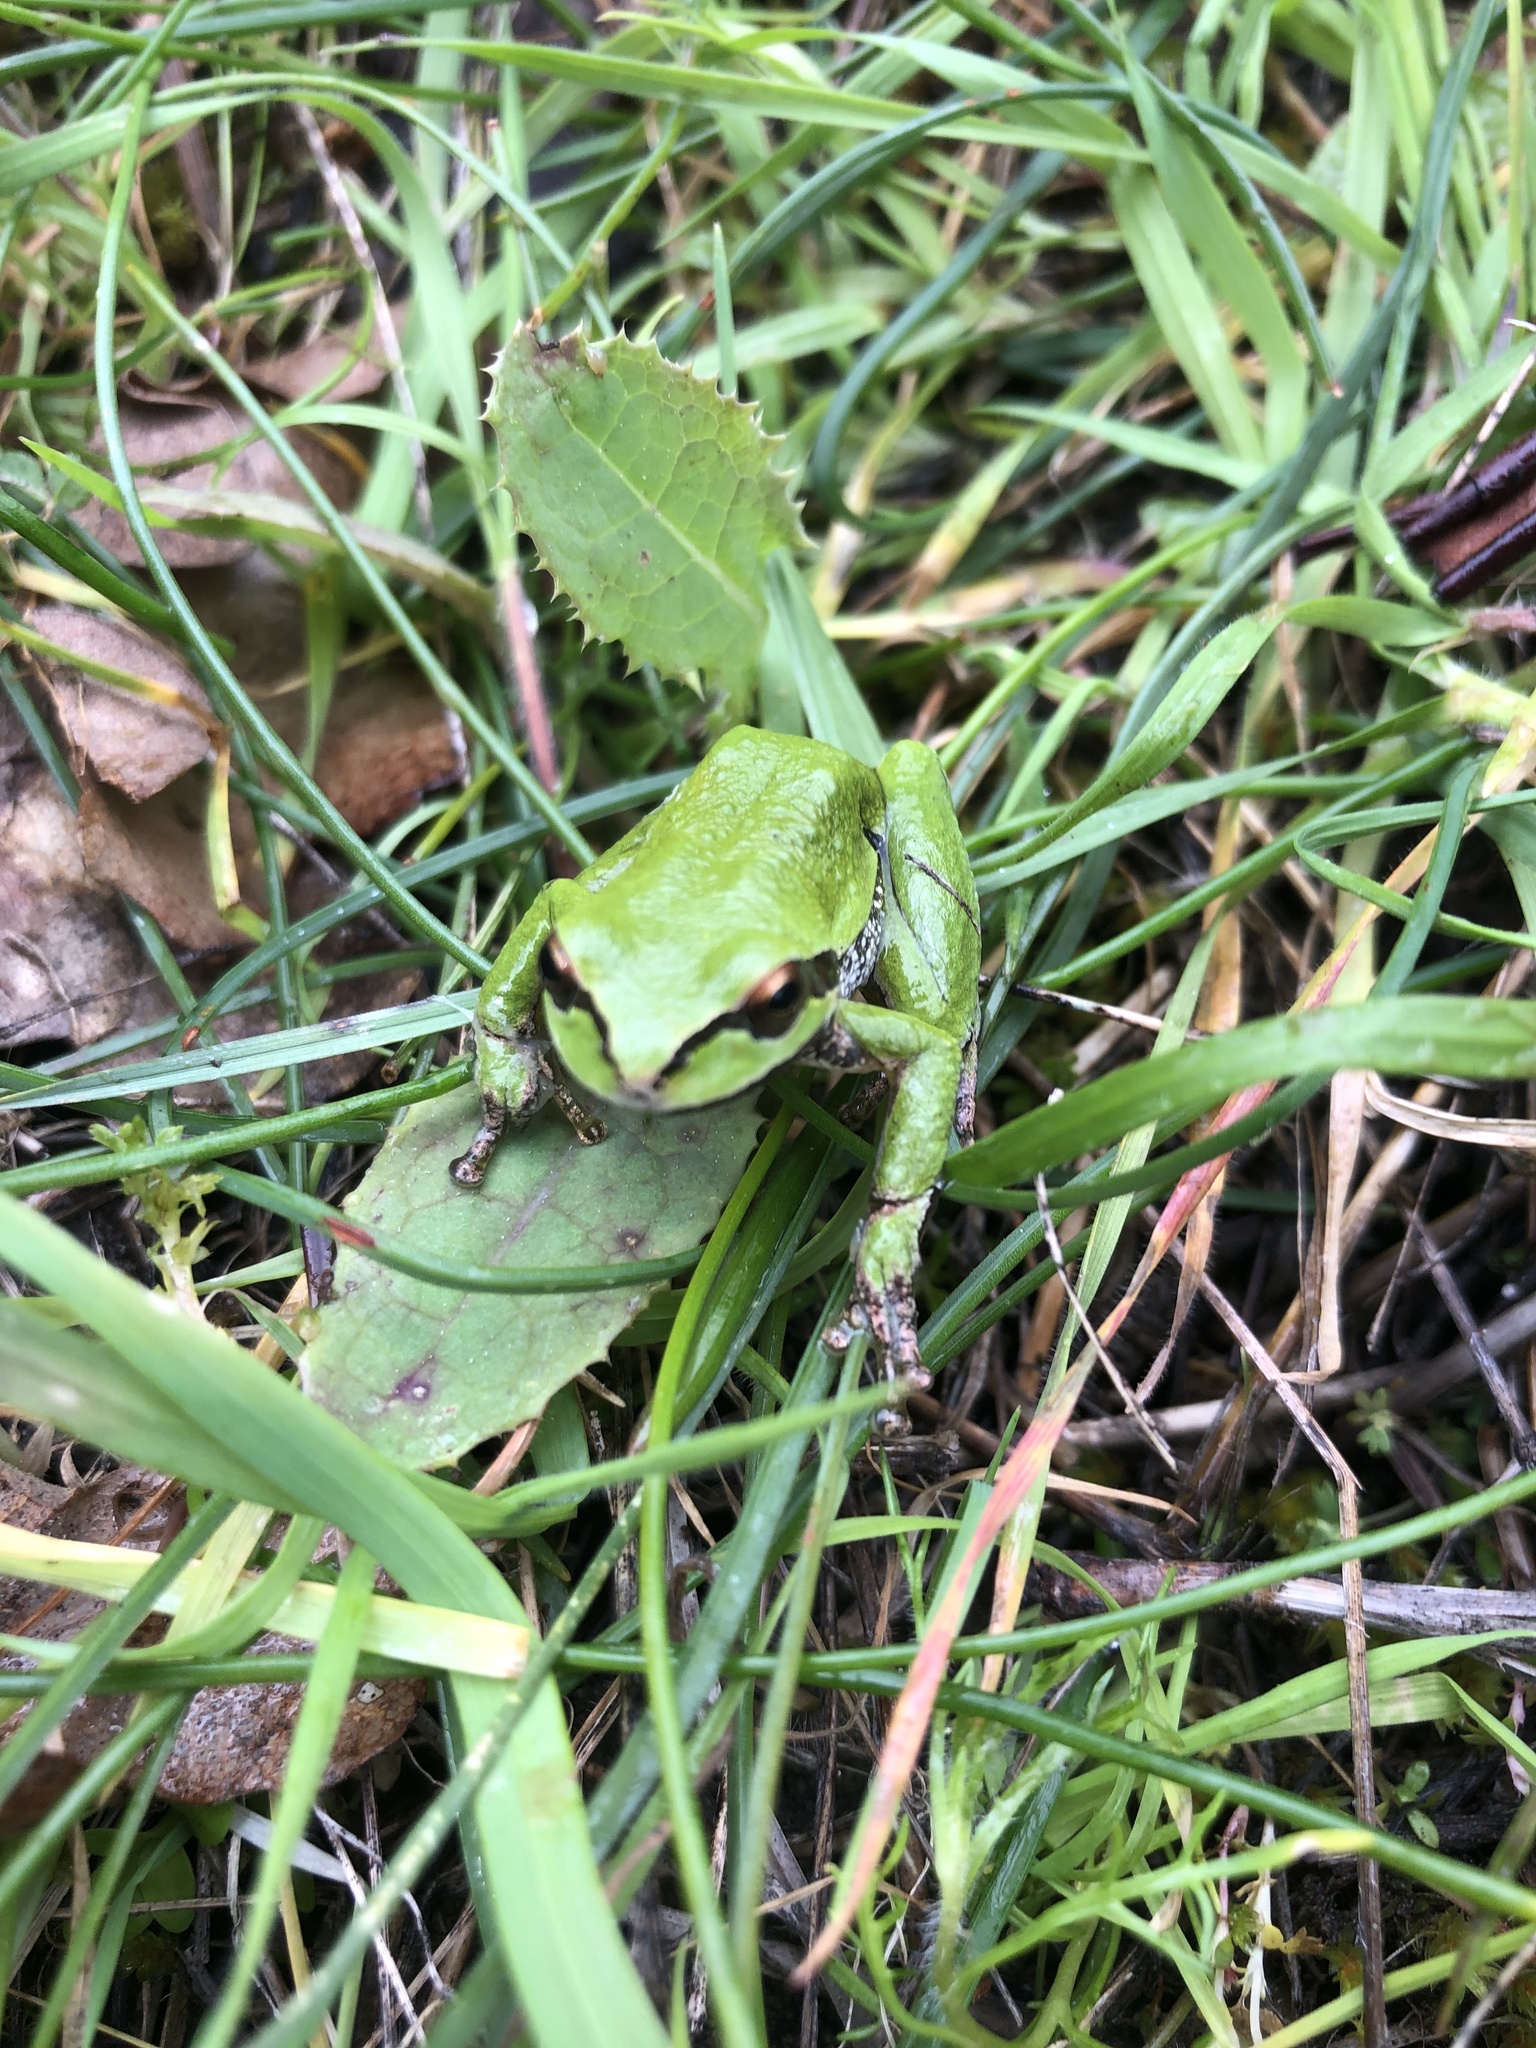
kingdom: Animalia
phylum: Chordata
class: Amphibia
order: Anura
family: Hylidae
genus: Pseudacris
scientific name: Pseudacris regilla
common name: Pacific chorus frog
